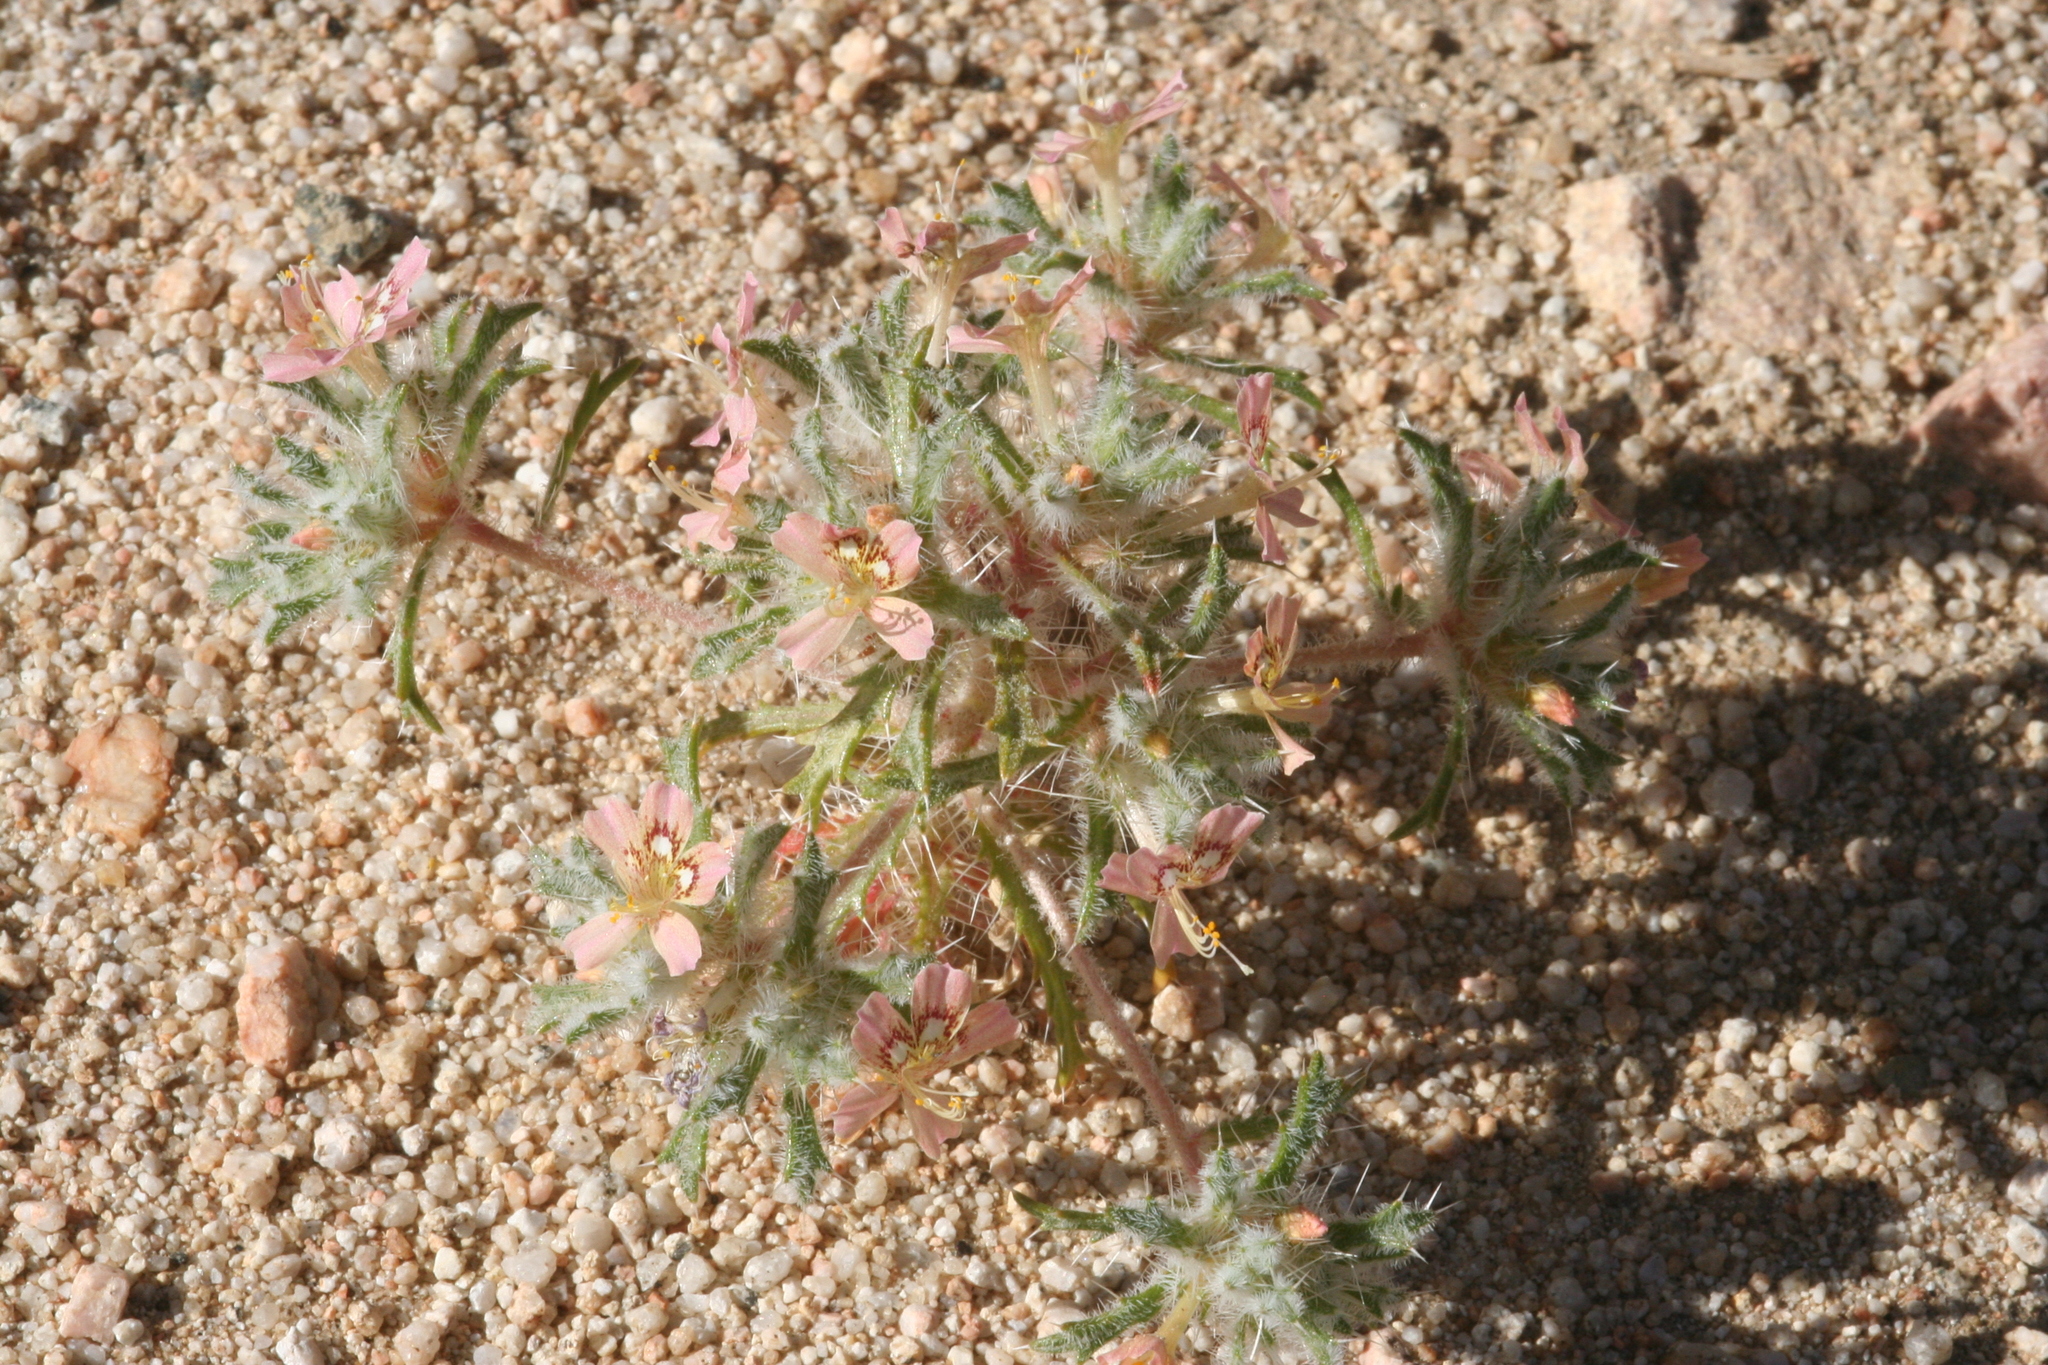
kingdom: Plantae
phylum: Tracheophyta
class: Magnoliopsida
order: Ericales
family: Polemoniaceae
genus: Loeseliastrum
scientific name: Loeseliastrum matthewsii
